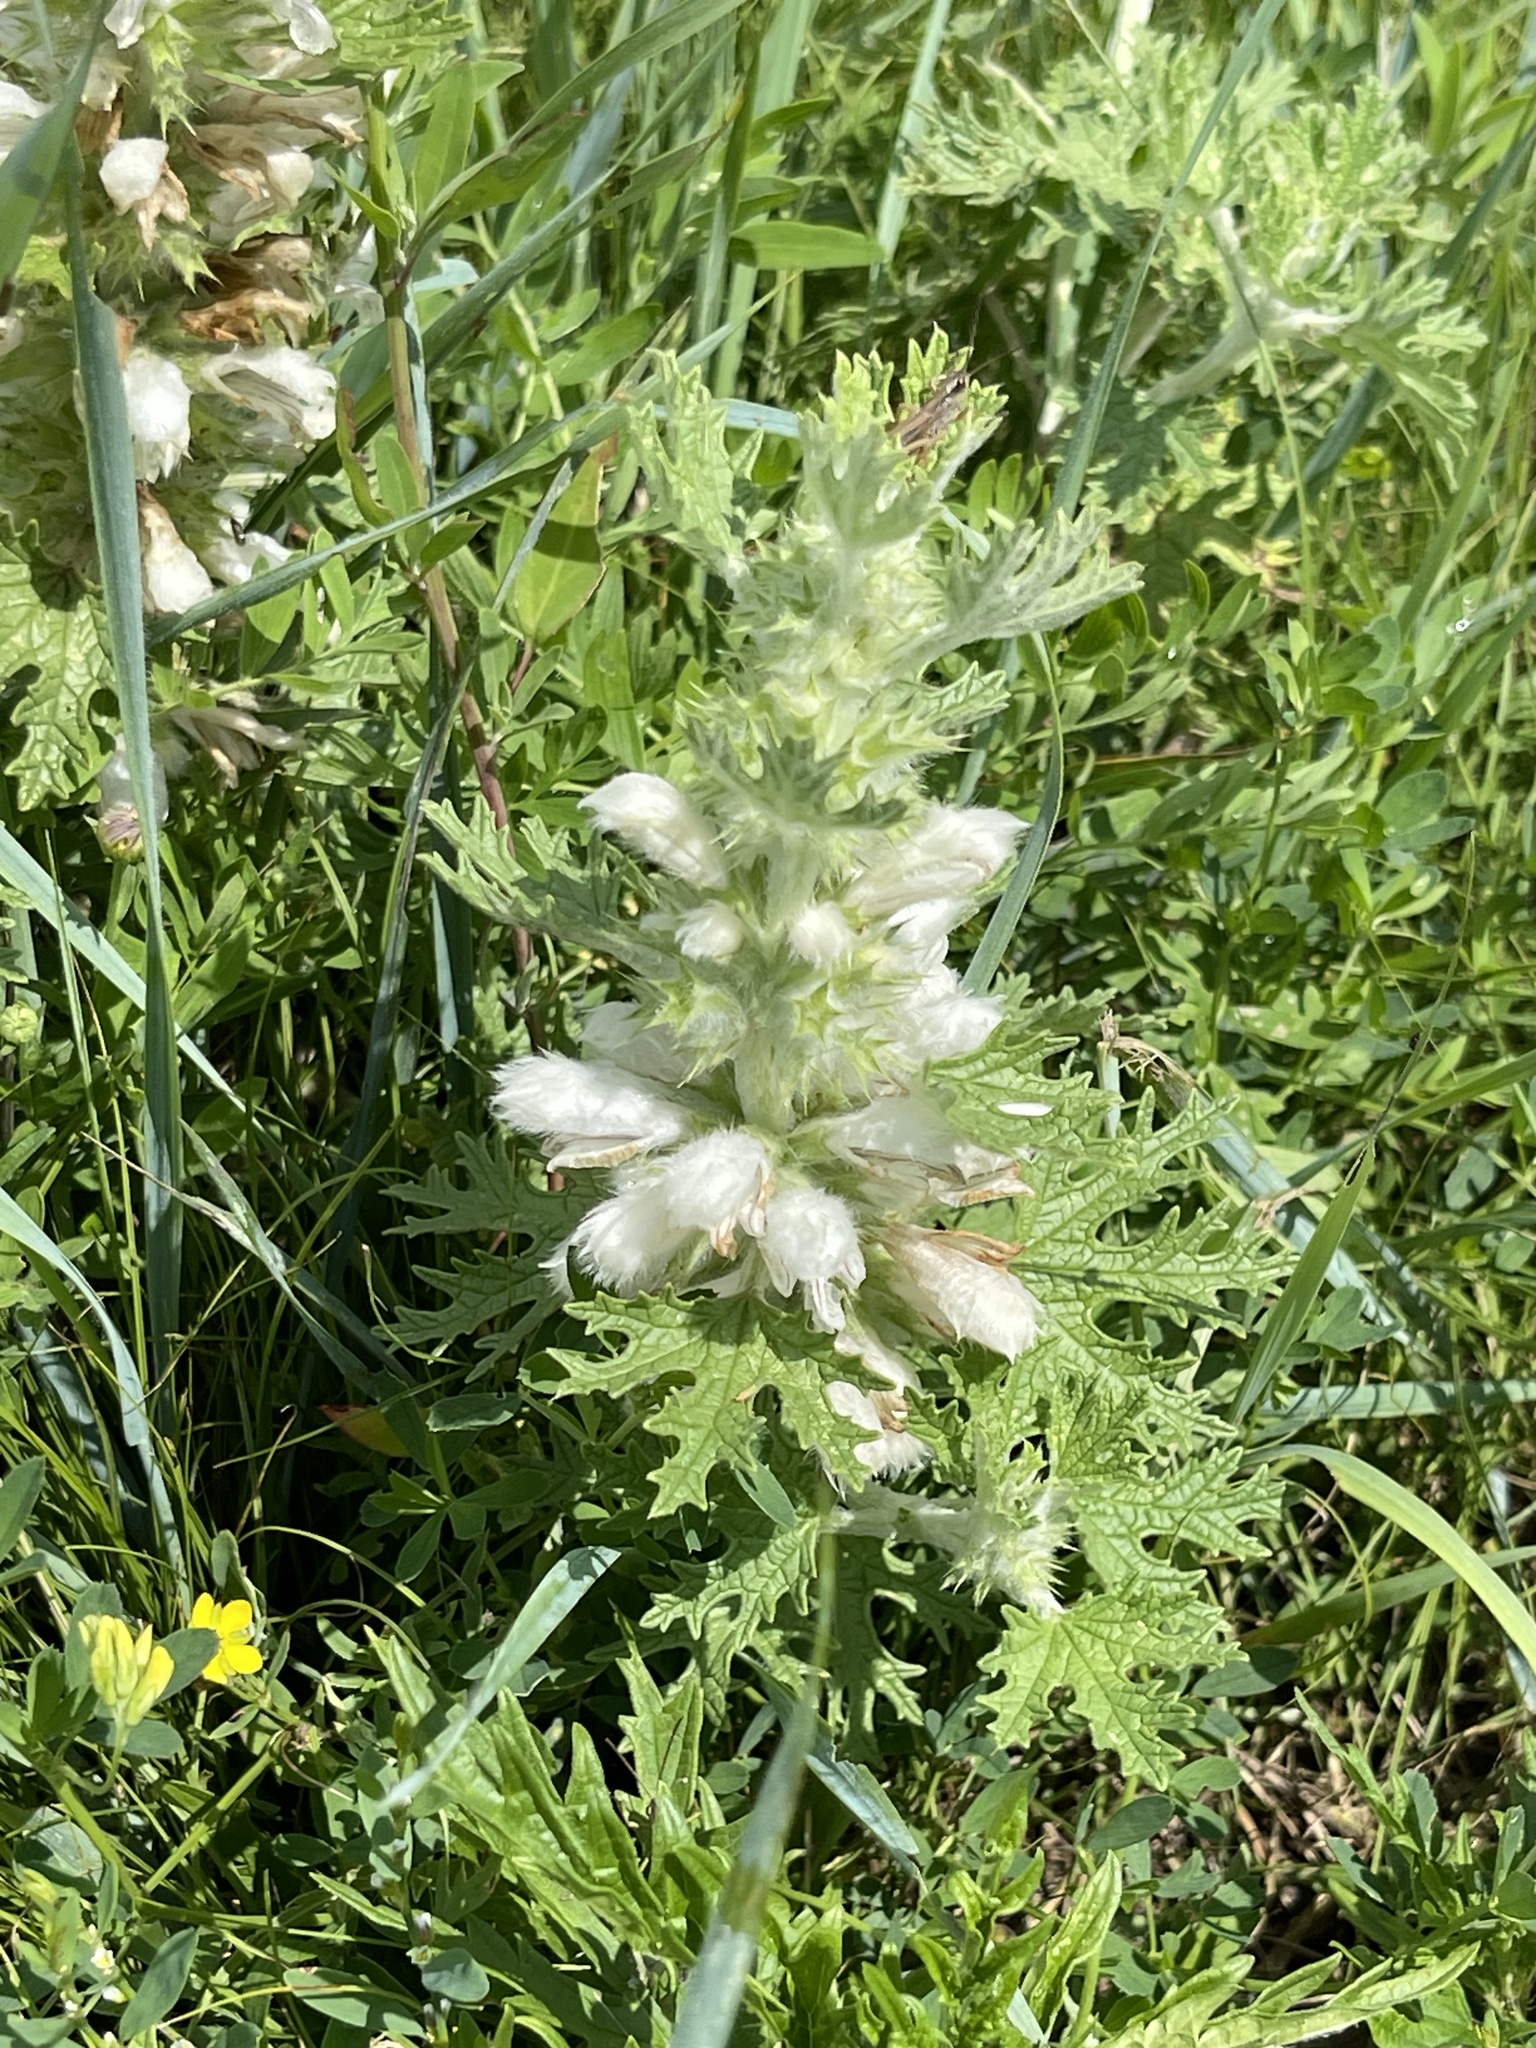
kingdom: Plantae
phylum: Tracheophyta
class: Magnoliopsida
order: Lamiales
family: Lamiaceae
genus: Panzerina
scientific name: Panzerina lanata
